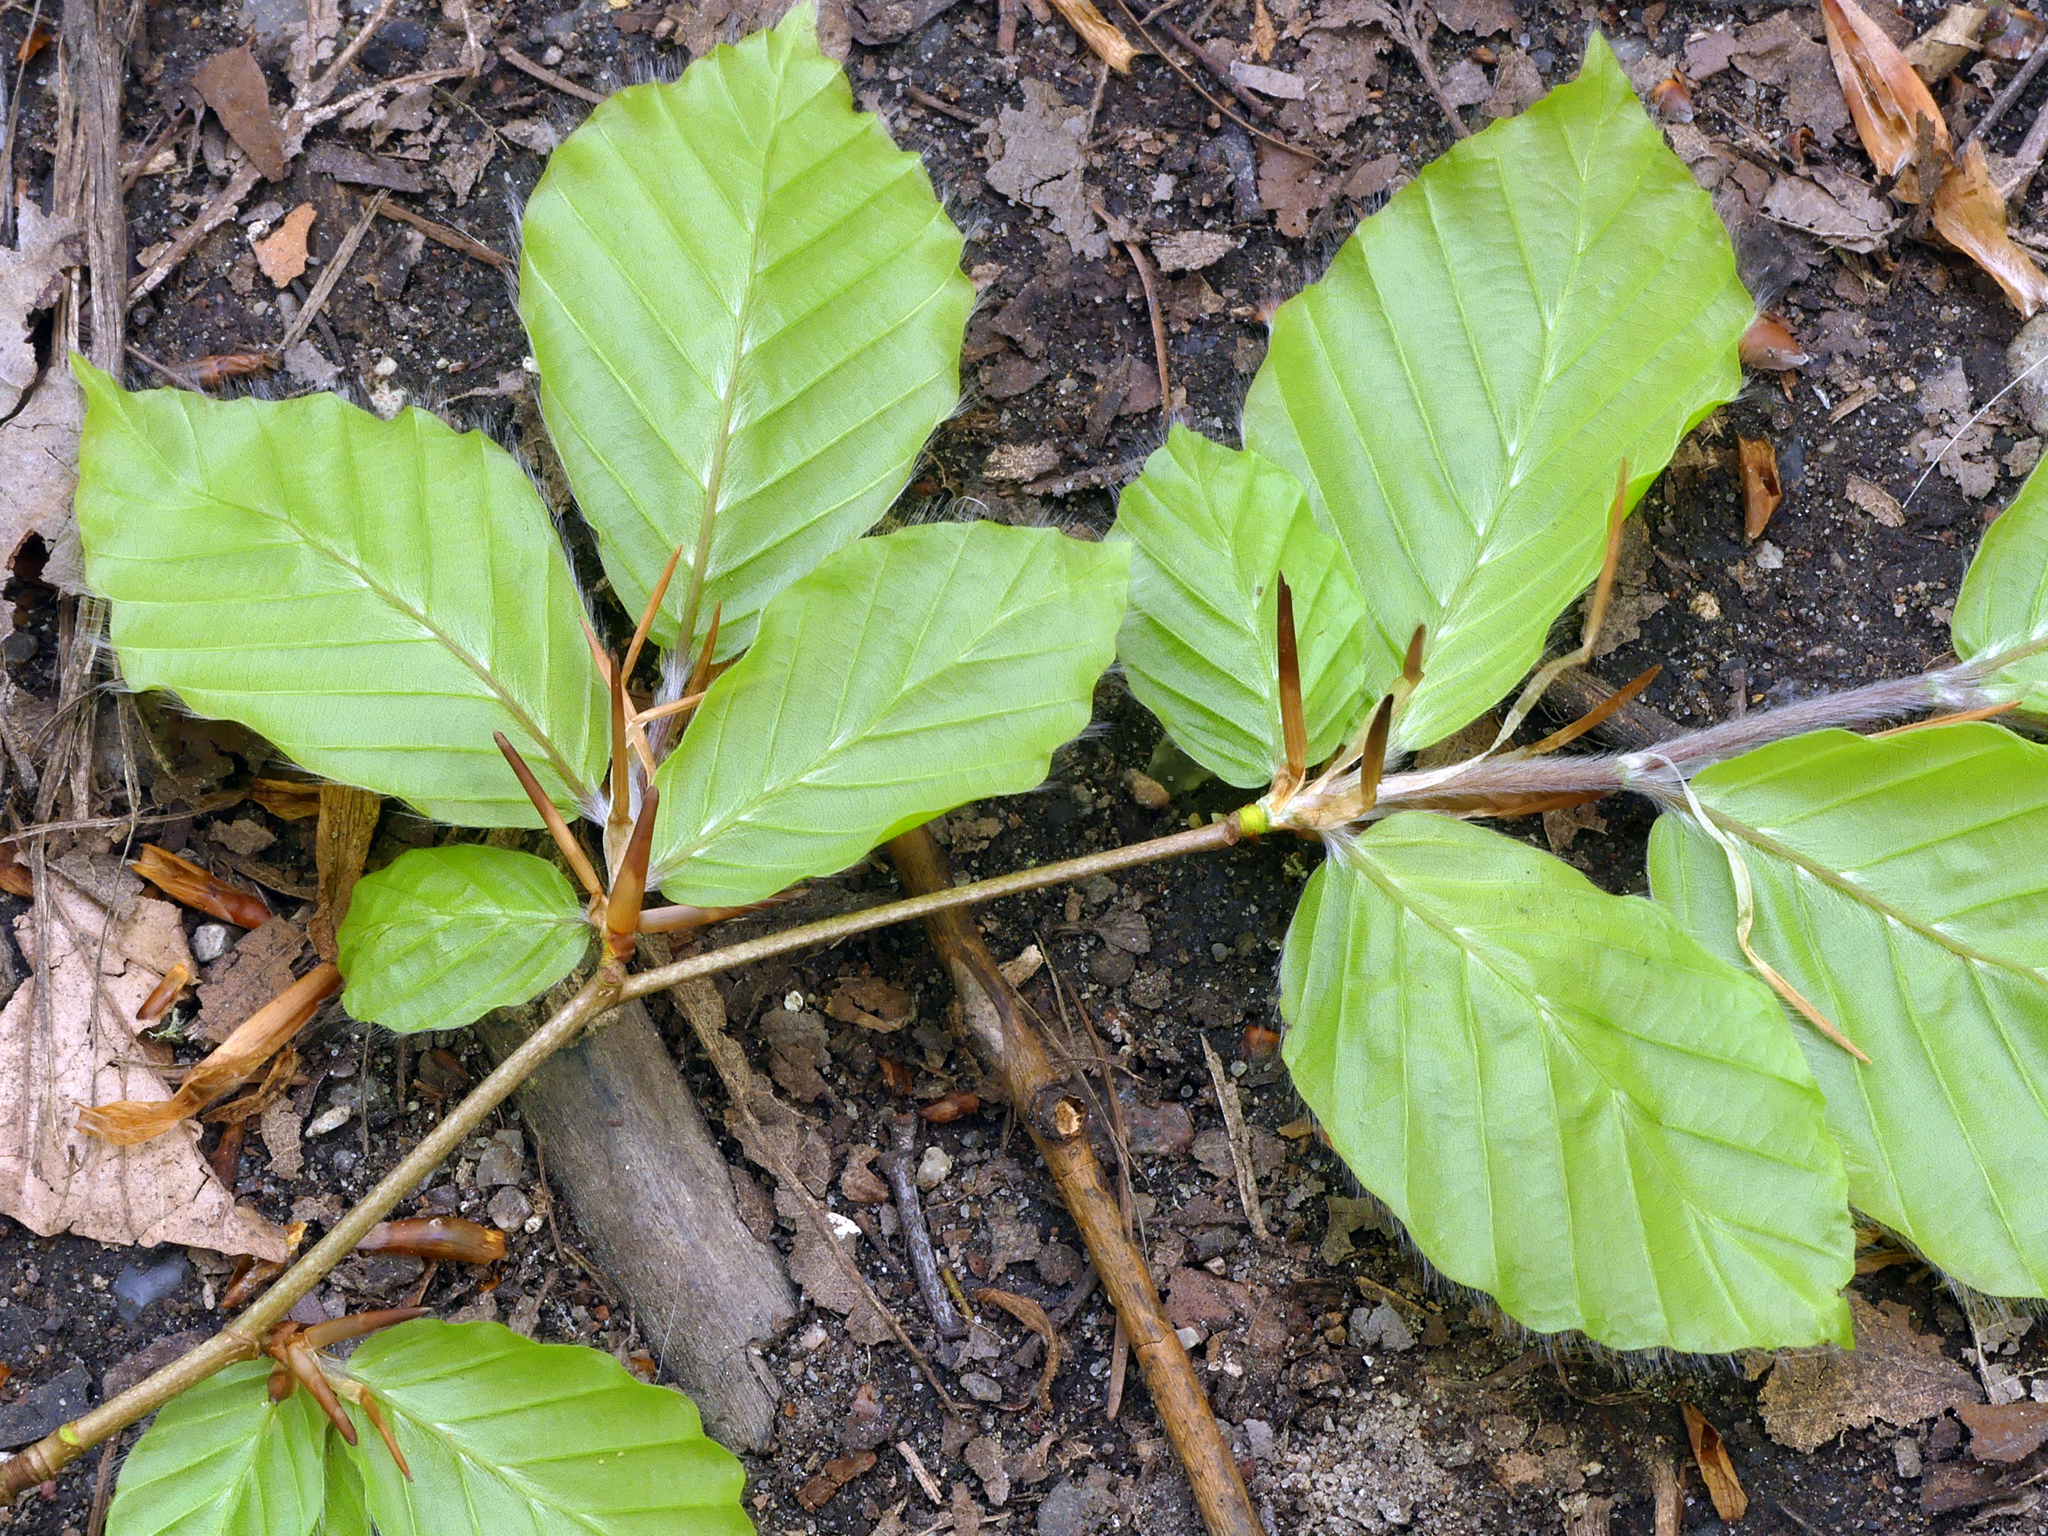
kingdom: Plantae
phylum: Tracheophyta
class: Magnoliopsida
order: Fagales
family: Fagaceae
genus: Fagus
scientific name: Fagus sylvatica
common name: Beech
